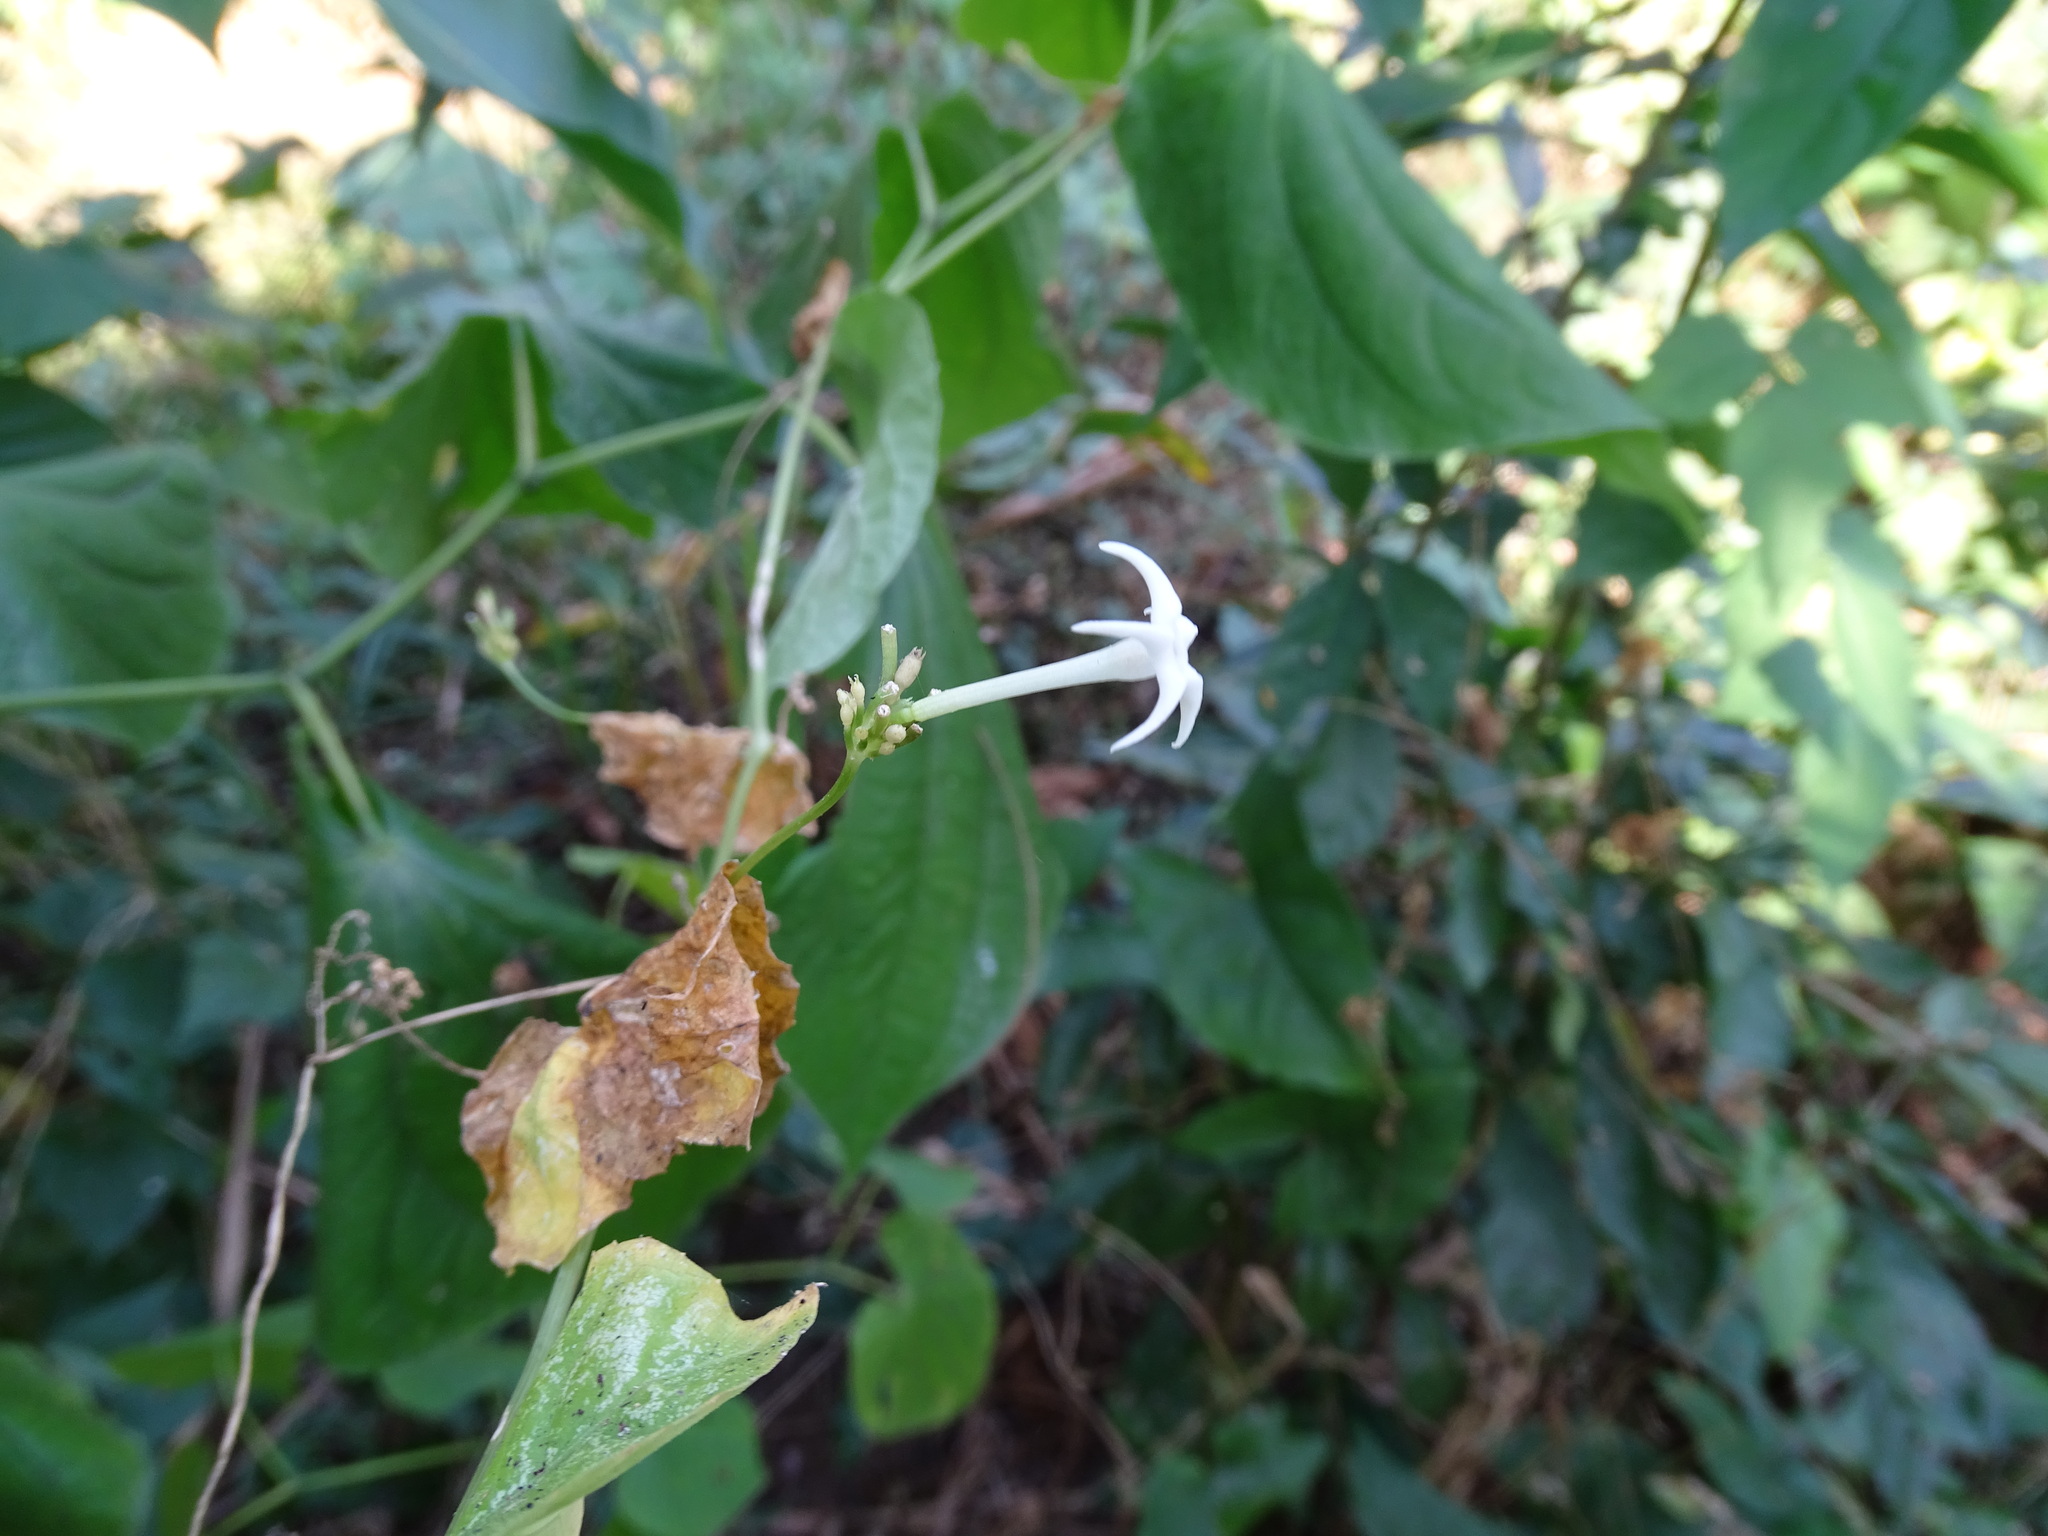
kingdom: Plantae
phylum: Tracheophyta
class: Magnoliopsida
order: Cucurbitales
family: Cucurbitaceae
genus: Cyclanthera
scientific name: Cyclanthera carthagenensis
